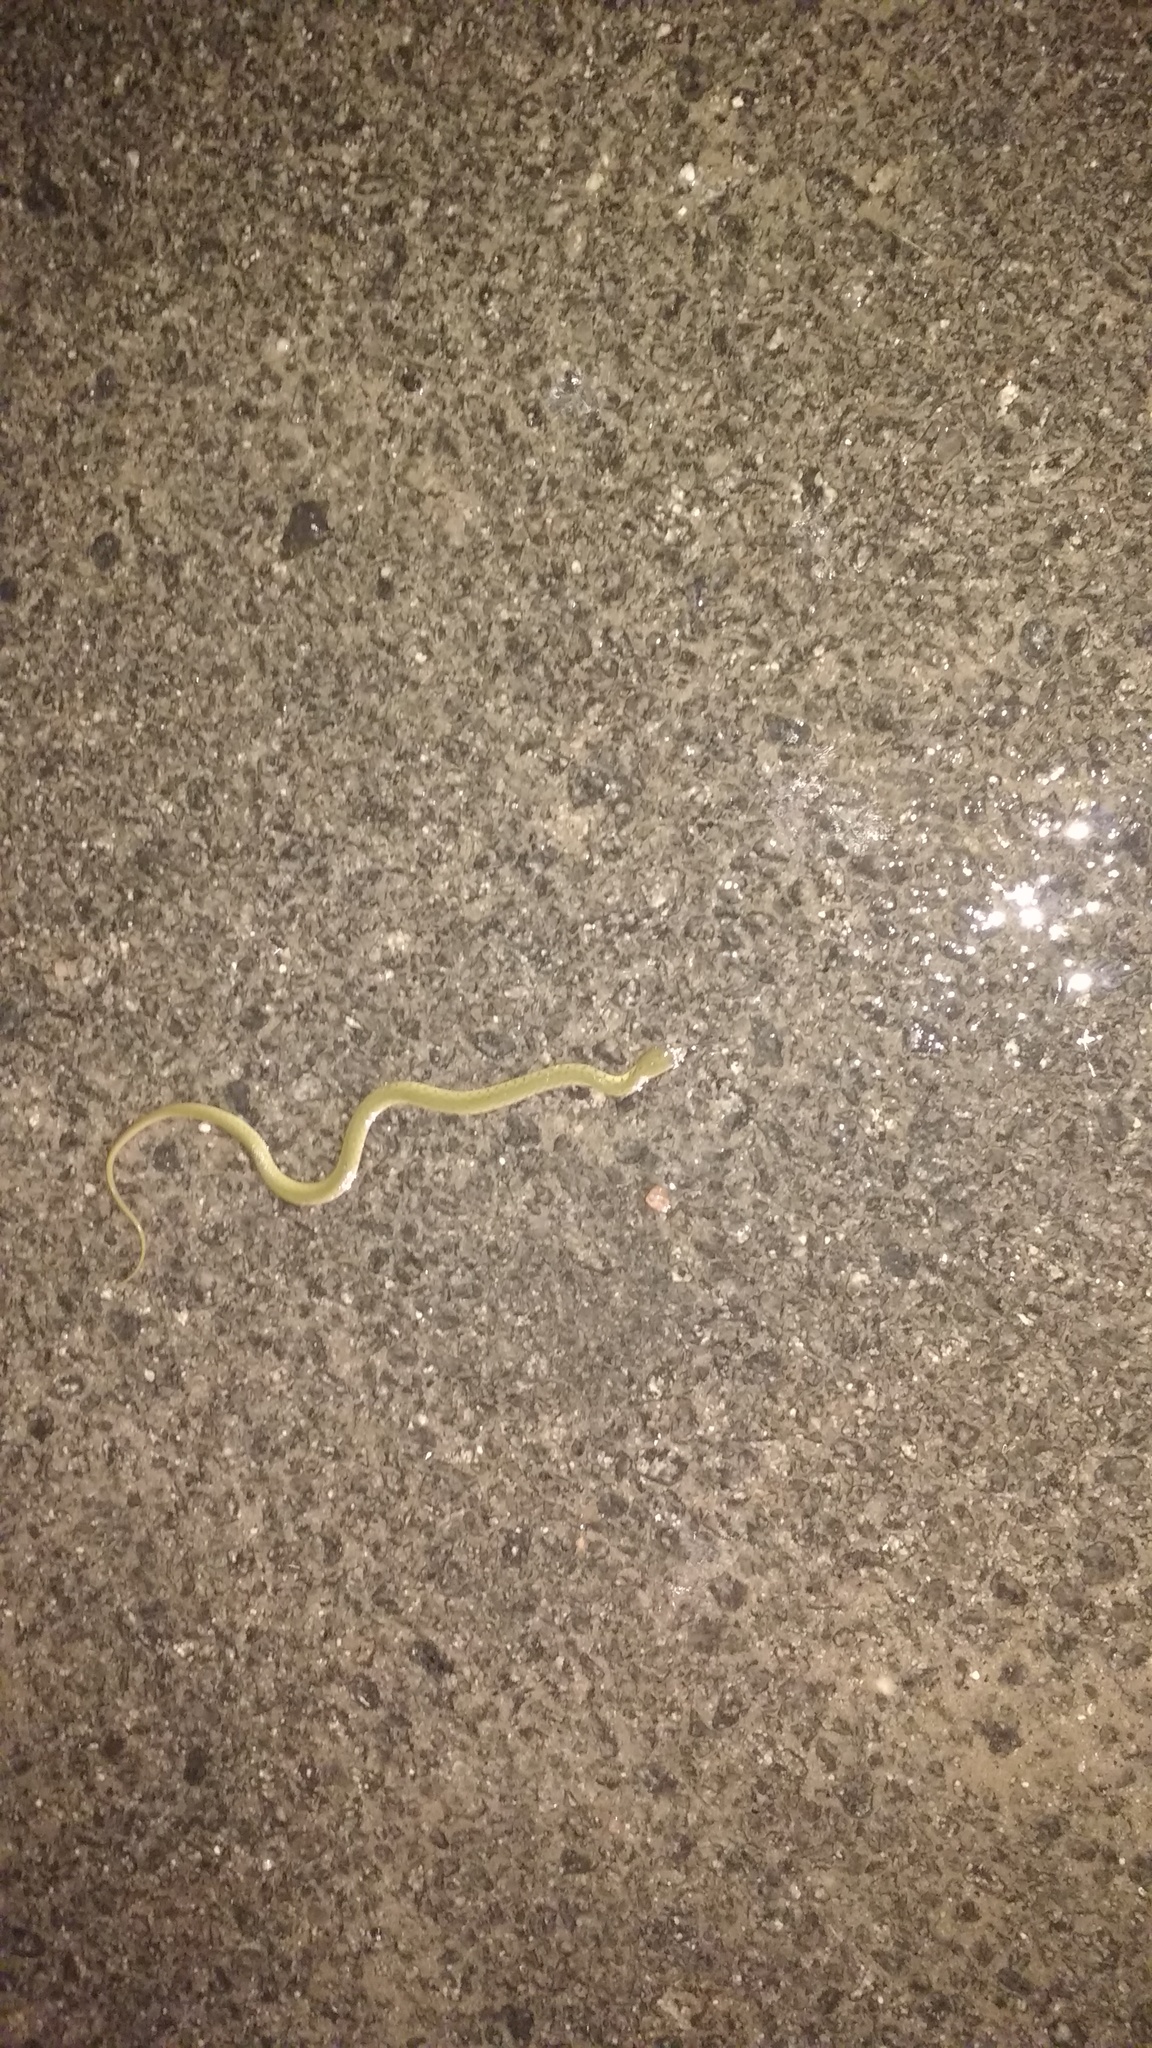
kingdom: Animalia
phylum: Chordata
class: Squamata
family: Colubridae
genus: Fowlea
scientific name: Fowlea piscator
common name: Asiatic water snake
